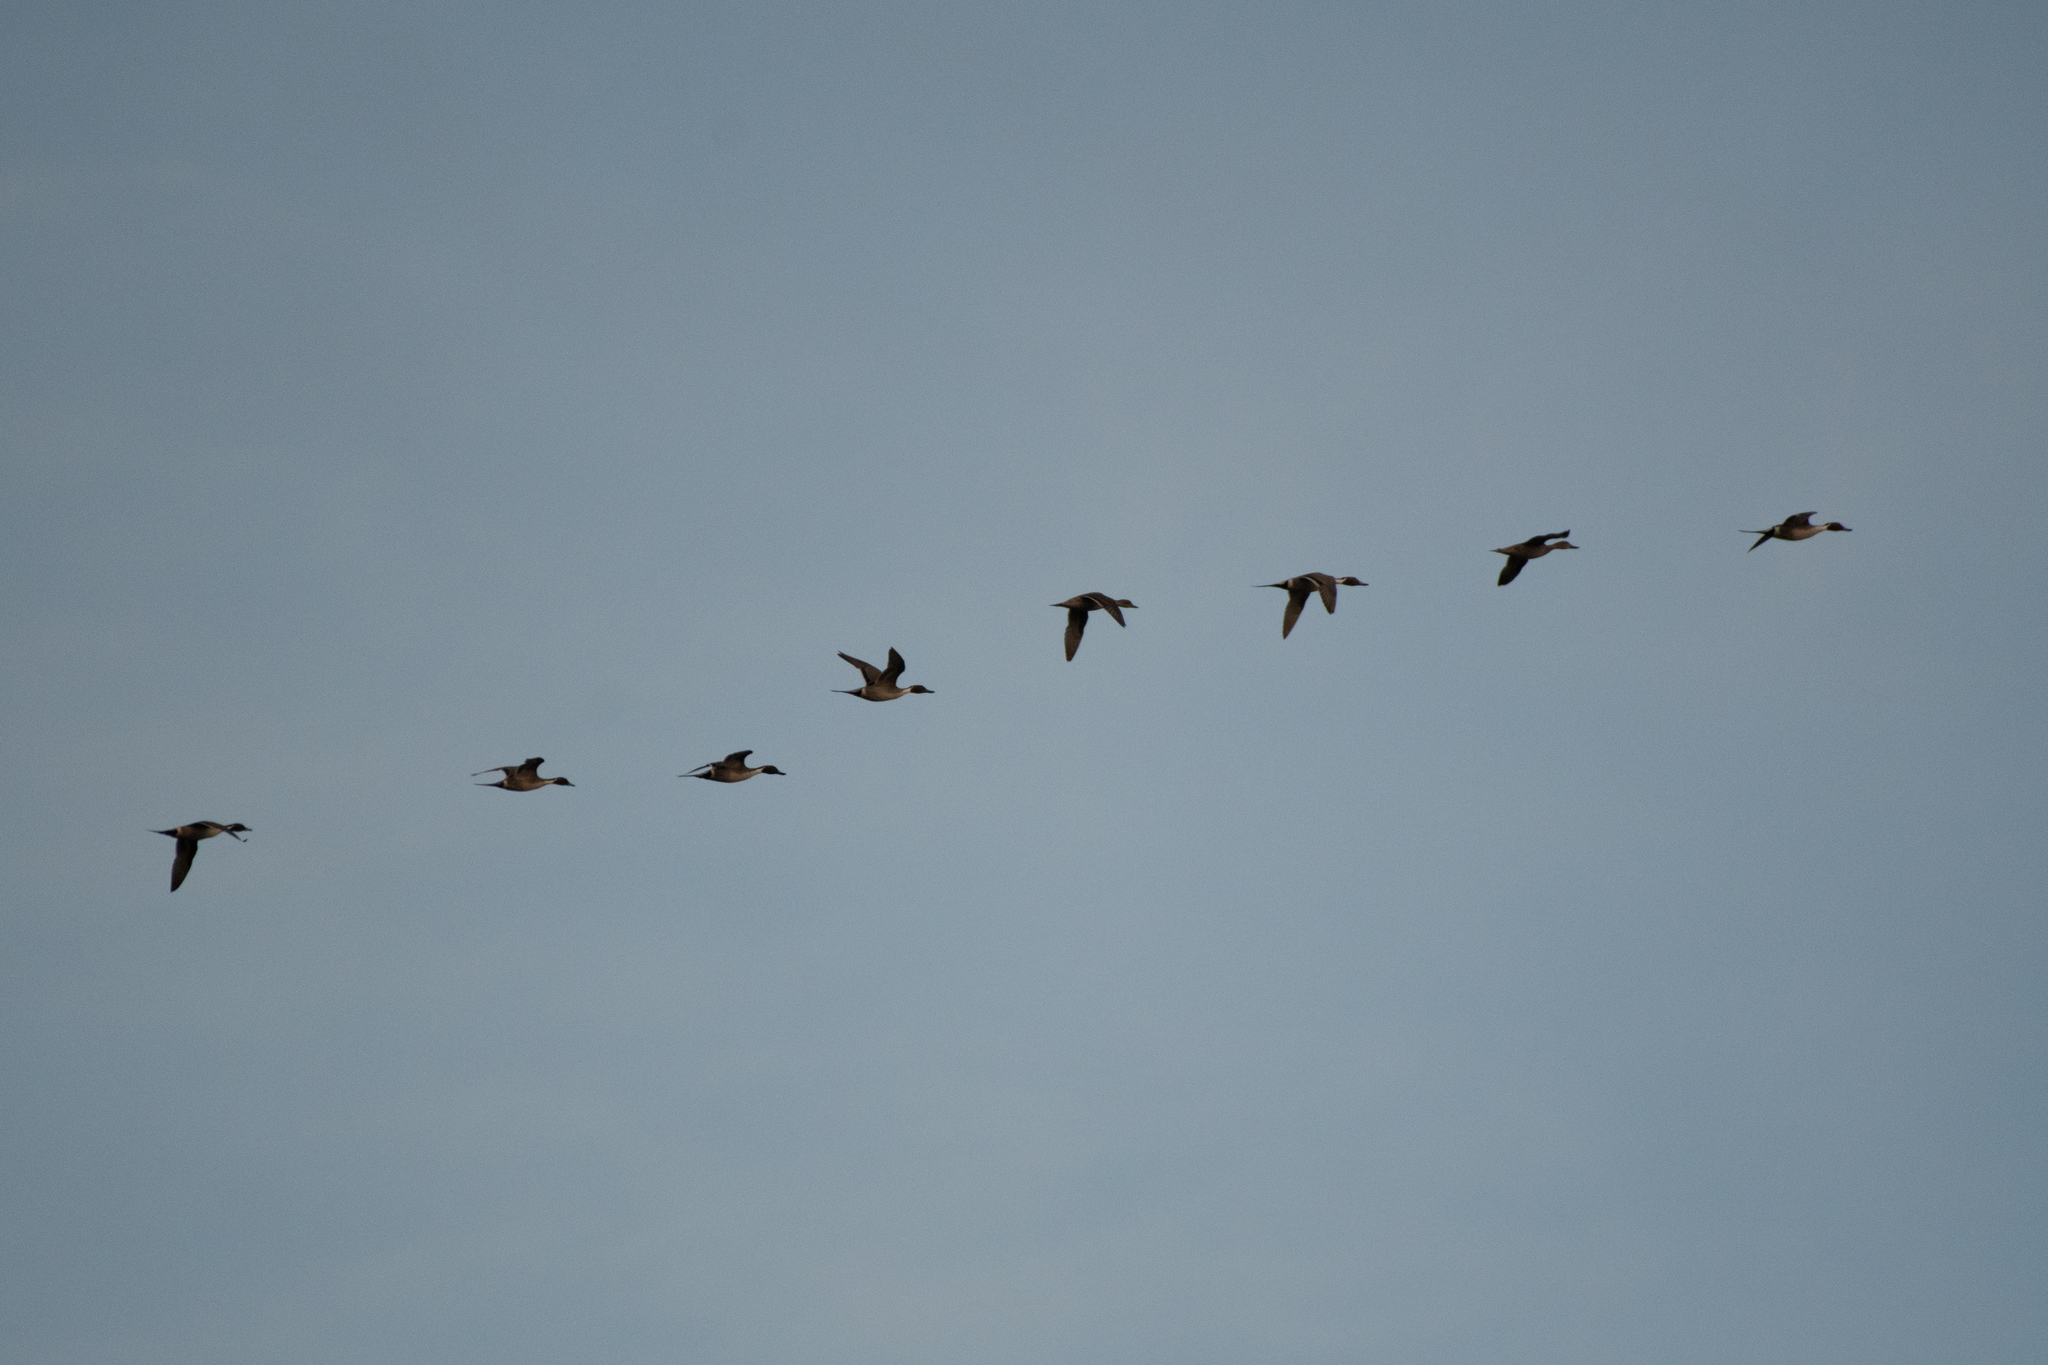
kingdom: Animalia
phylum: Chordata
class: Aves
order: Anseriformes
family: Anatidae
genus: Anas
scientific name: Anas acuta
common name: Northern pintail
